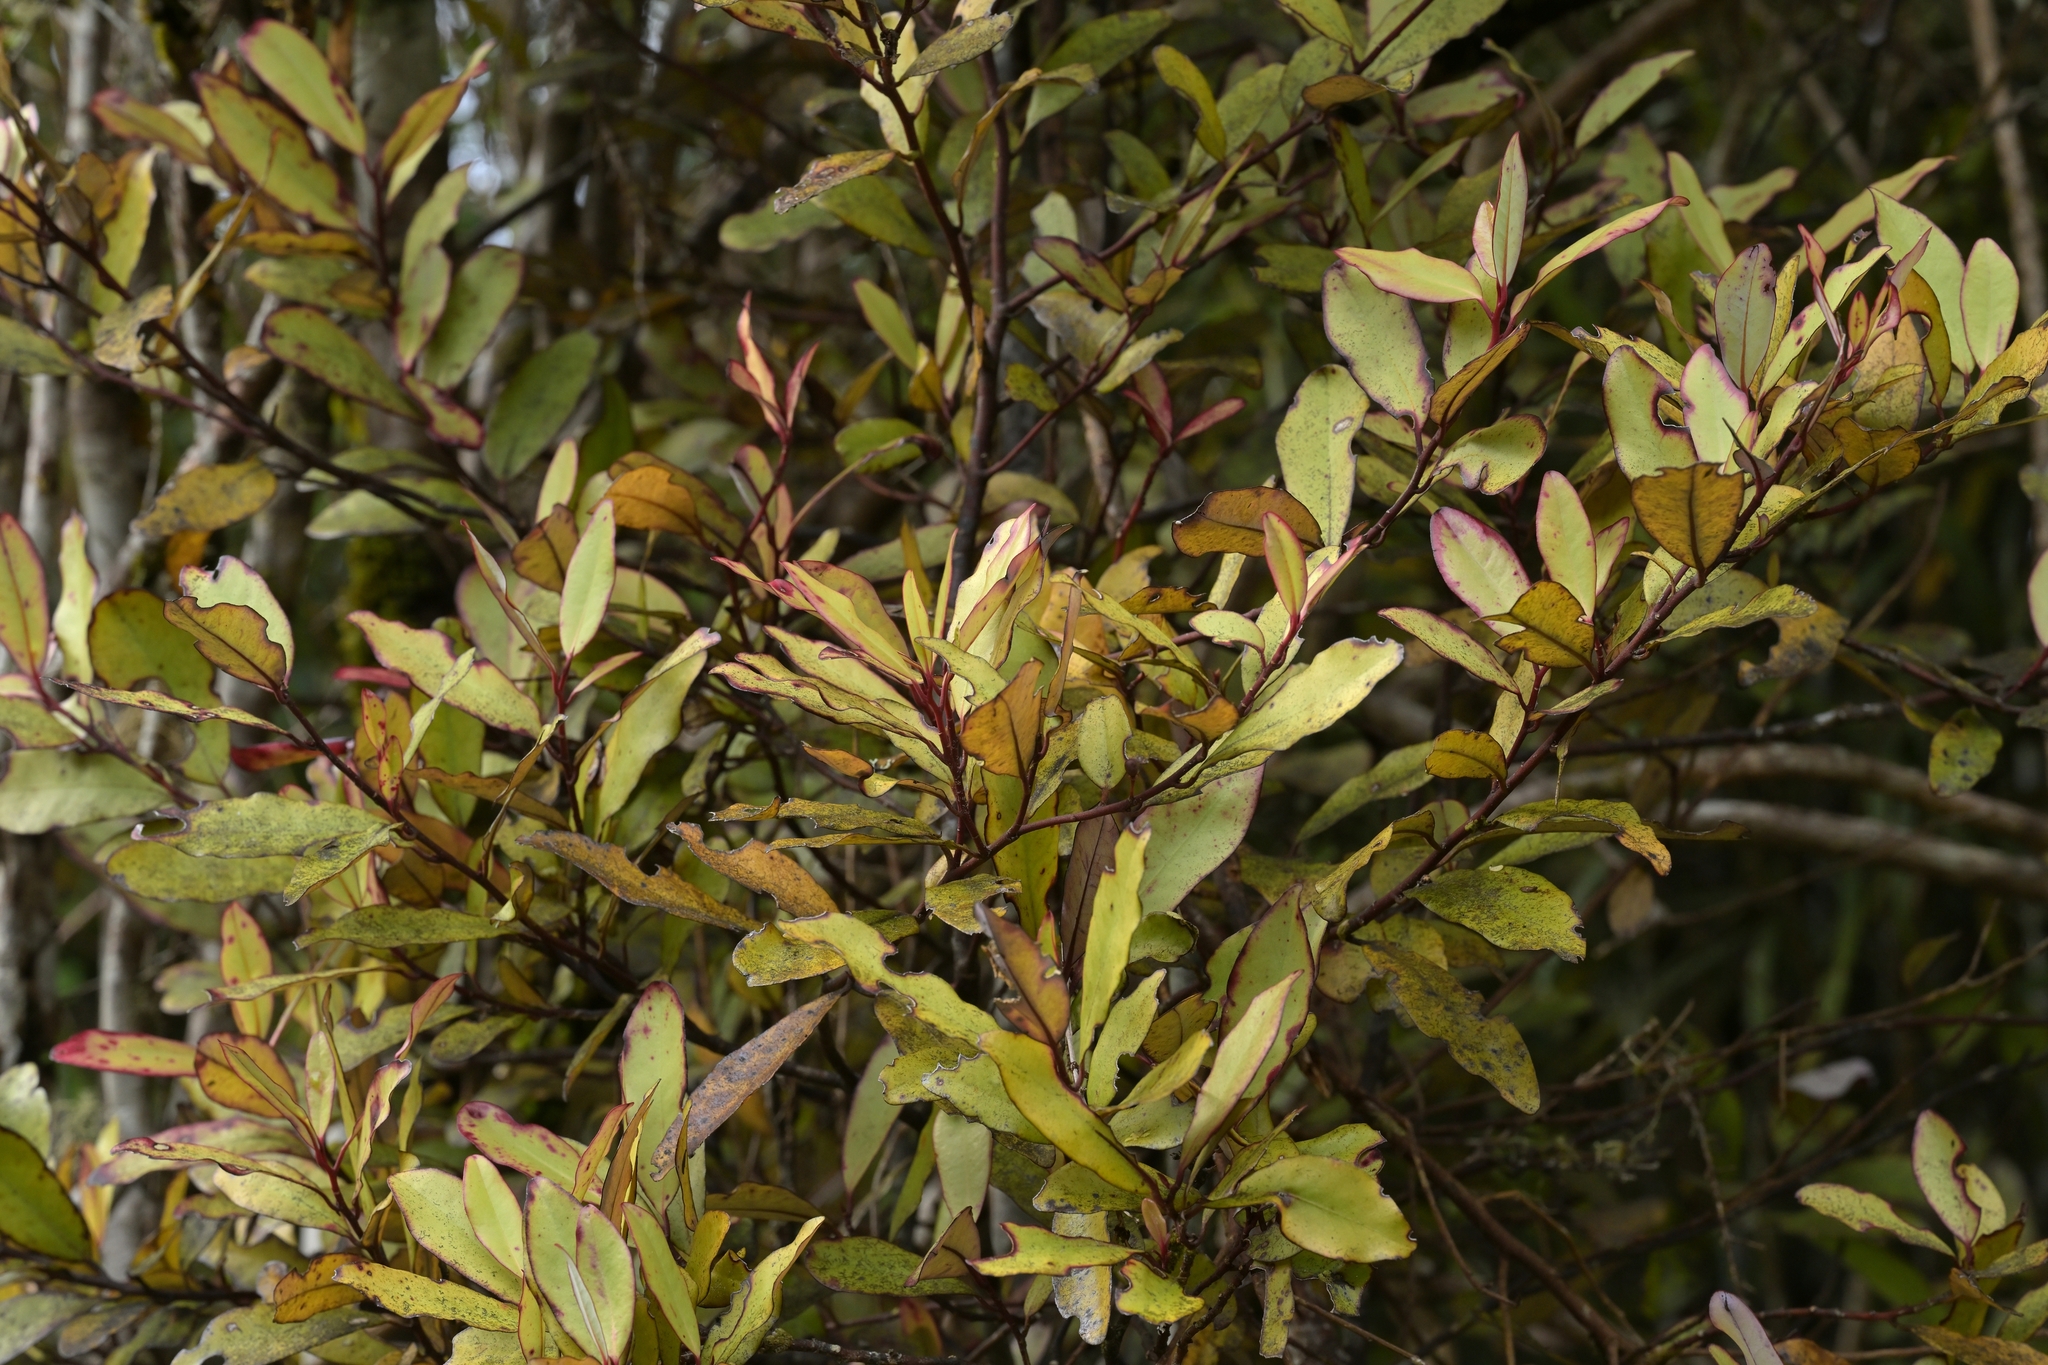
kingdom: Plantae
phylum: Tracheophyta
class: Magnoliopsida
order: Canellales
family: Winteraceae
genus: Pseudowintera
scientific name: Pseudowintera colorata
